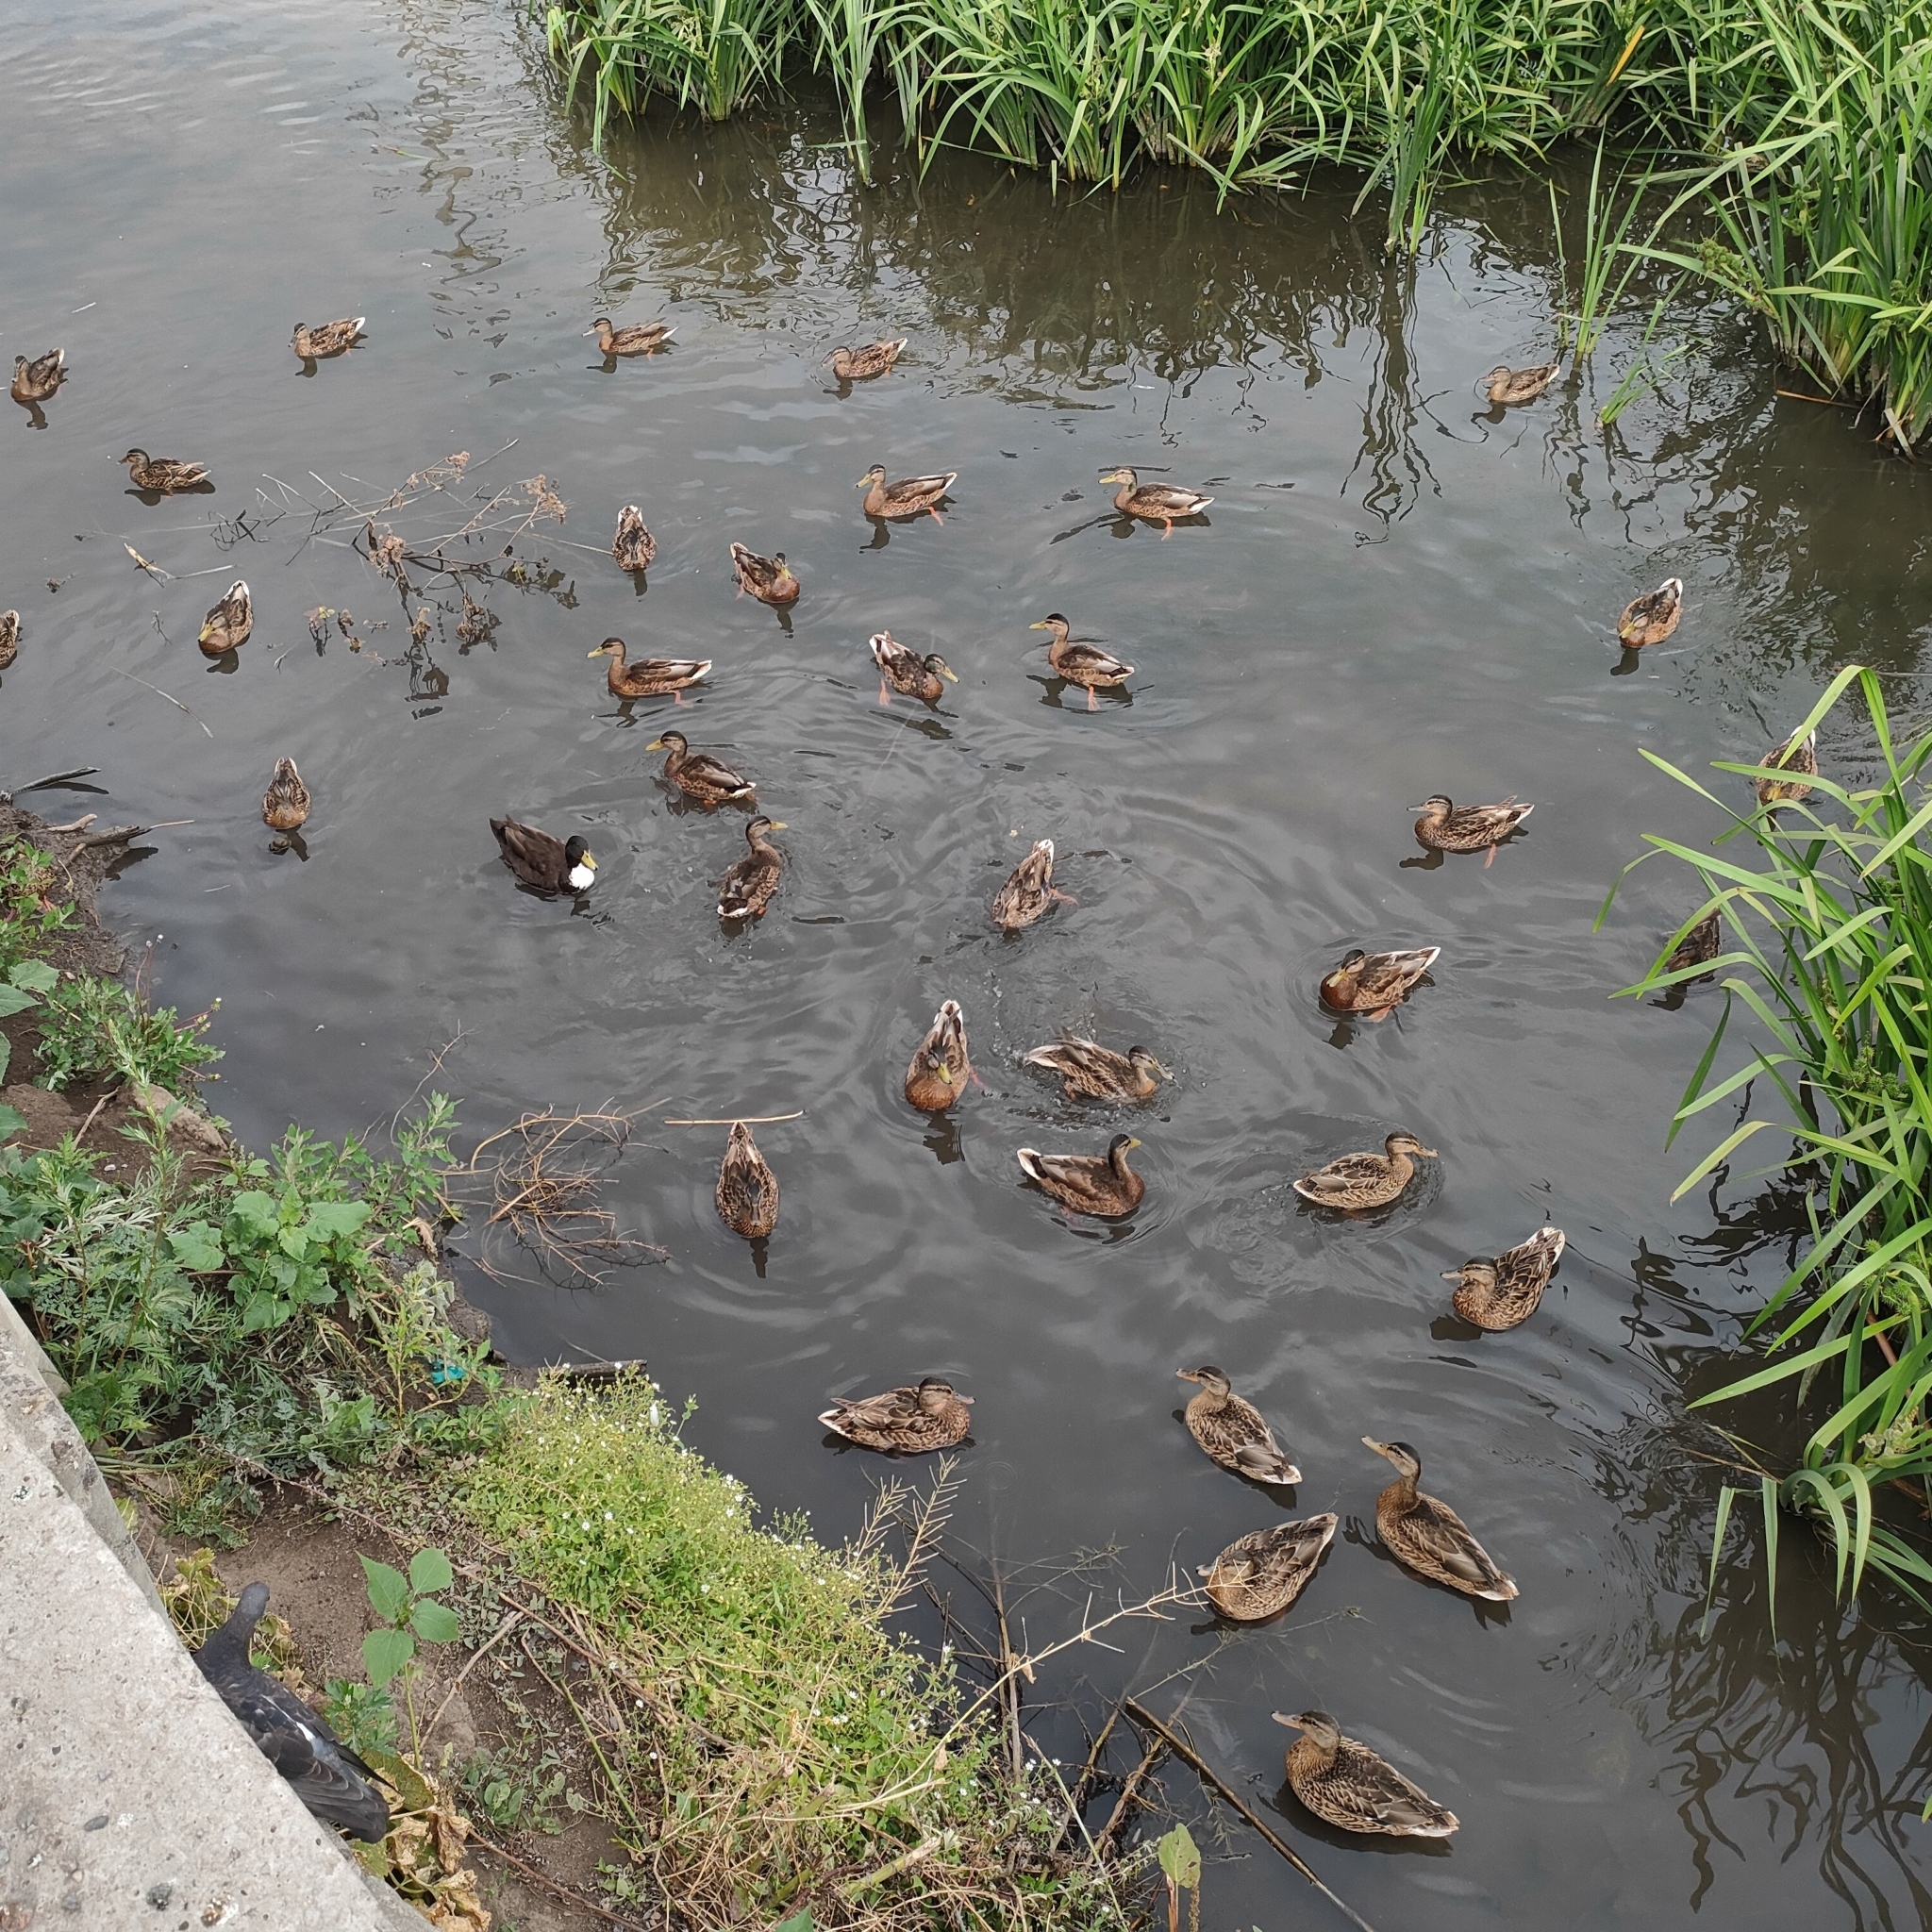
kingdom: Animalia
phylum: Chordata
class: Aves
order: Anseriformes
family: Anatidae
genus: Anas
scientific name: Anas platyrhynchos
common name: Mallard
